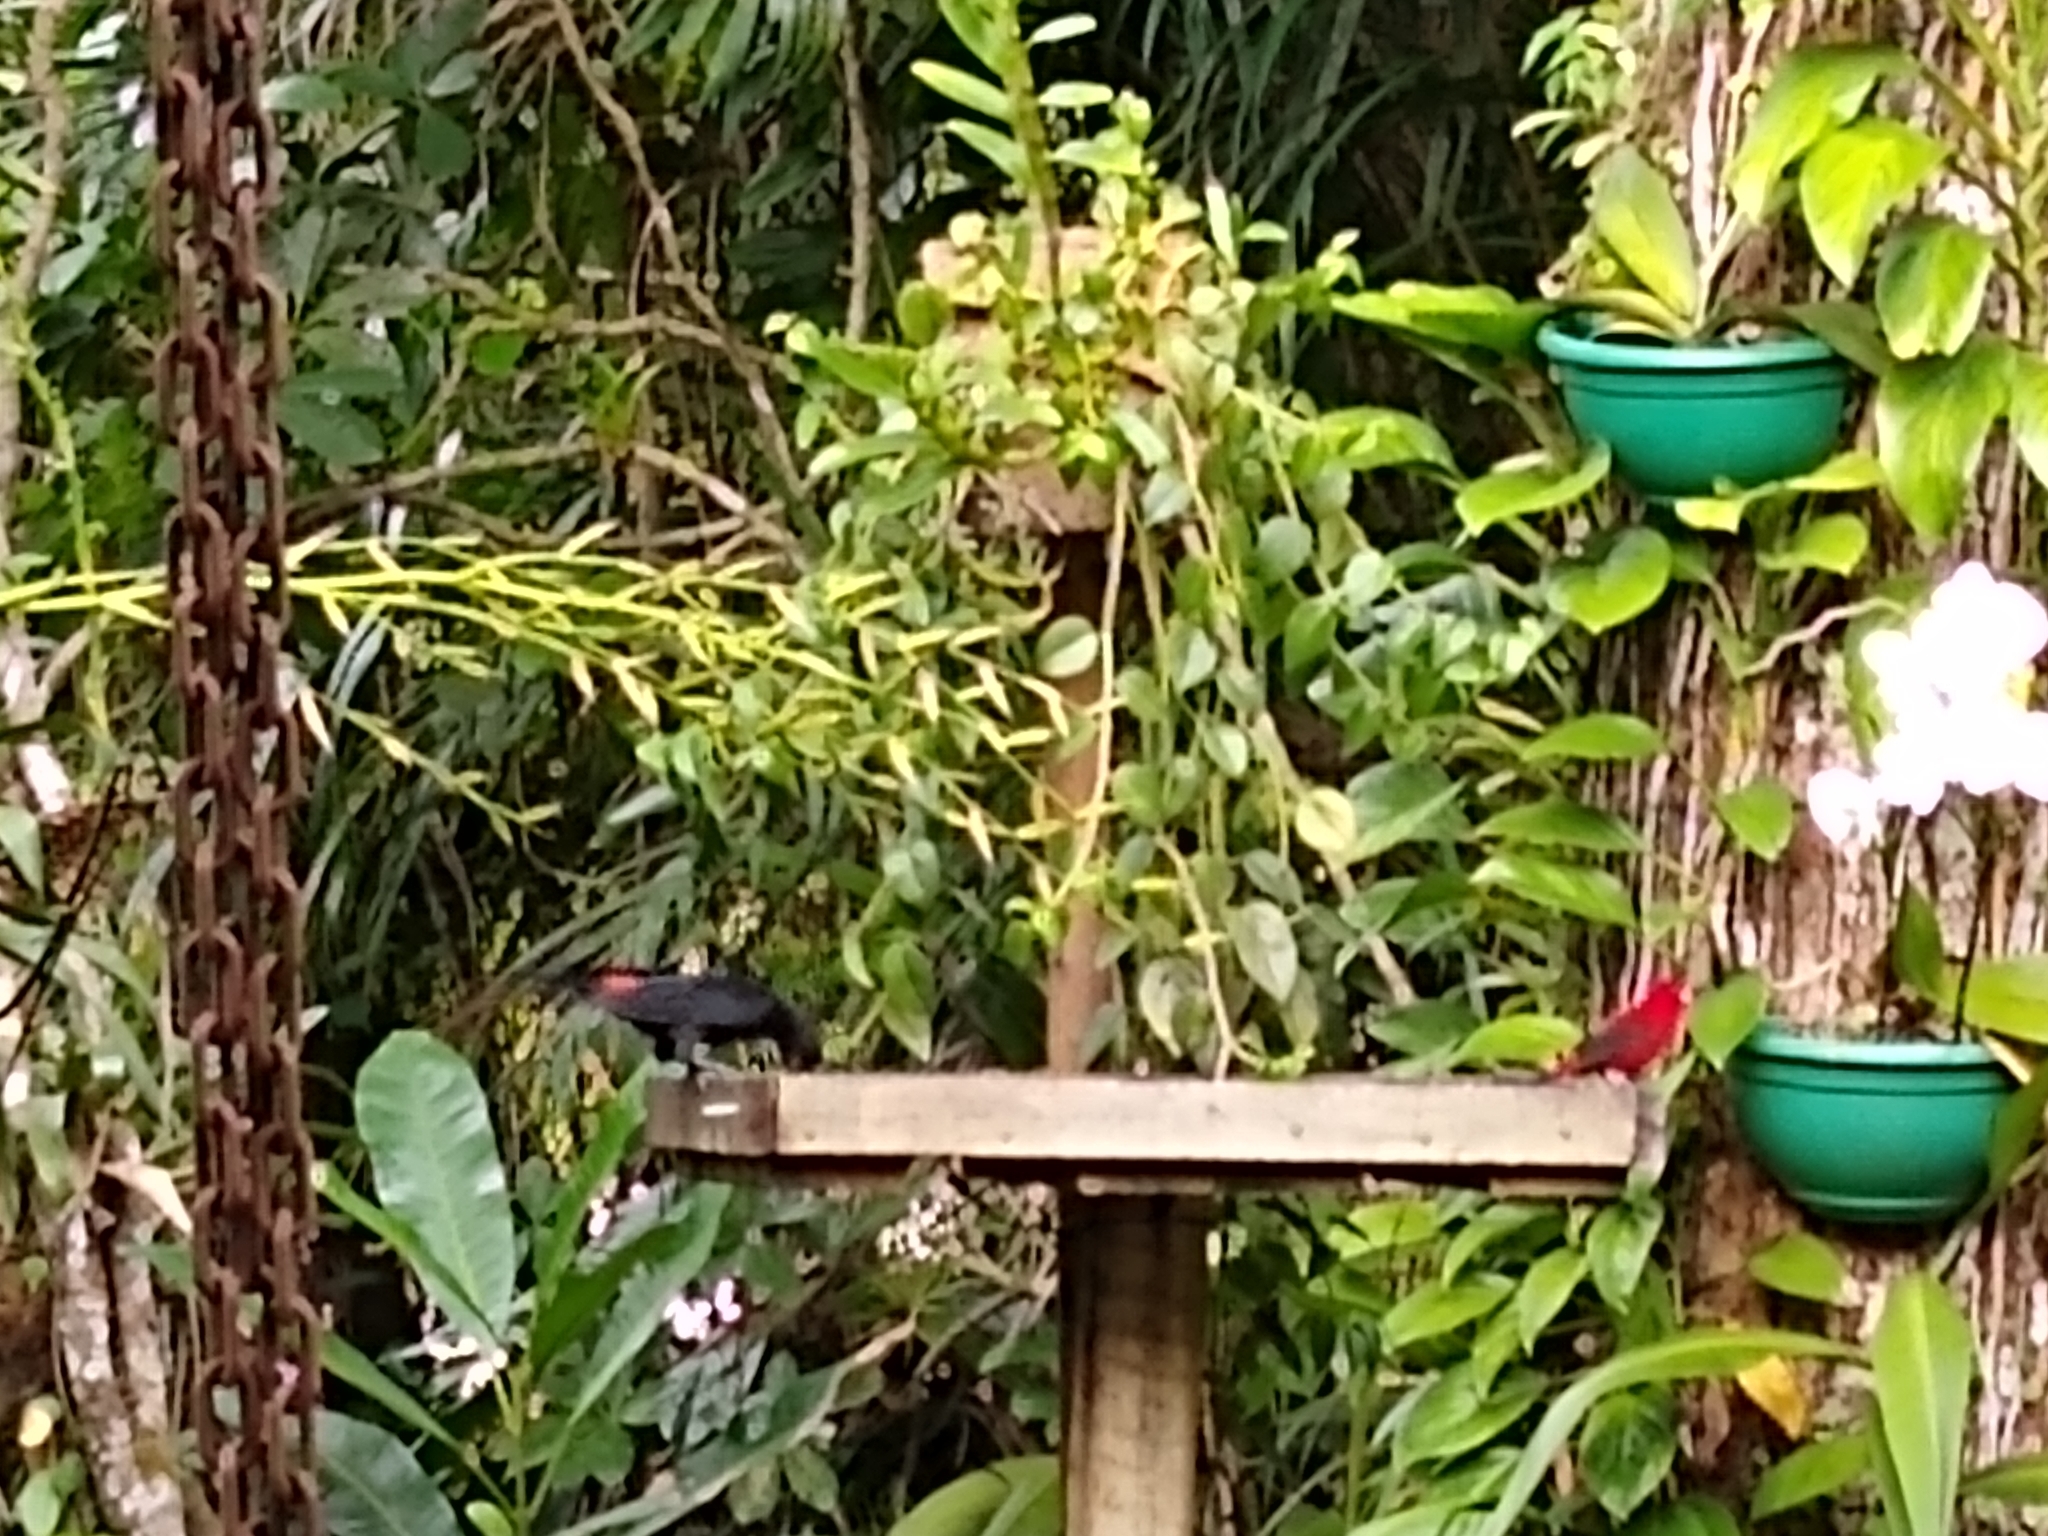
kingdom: Animalia
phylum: Chordata
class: Aves
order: Passeriformes
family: Thraupidae
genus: Ramphocelus
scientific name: Ramphocelus bresilia
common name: Brazilian tanager
